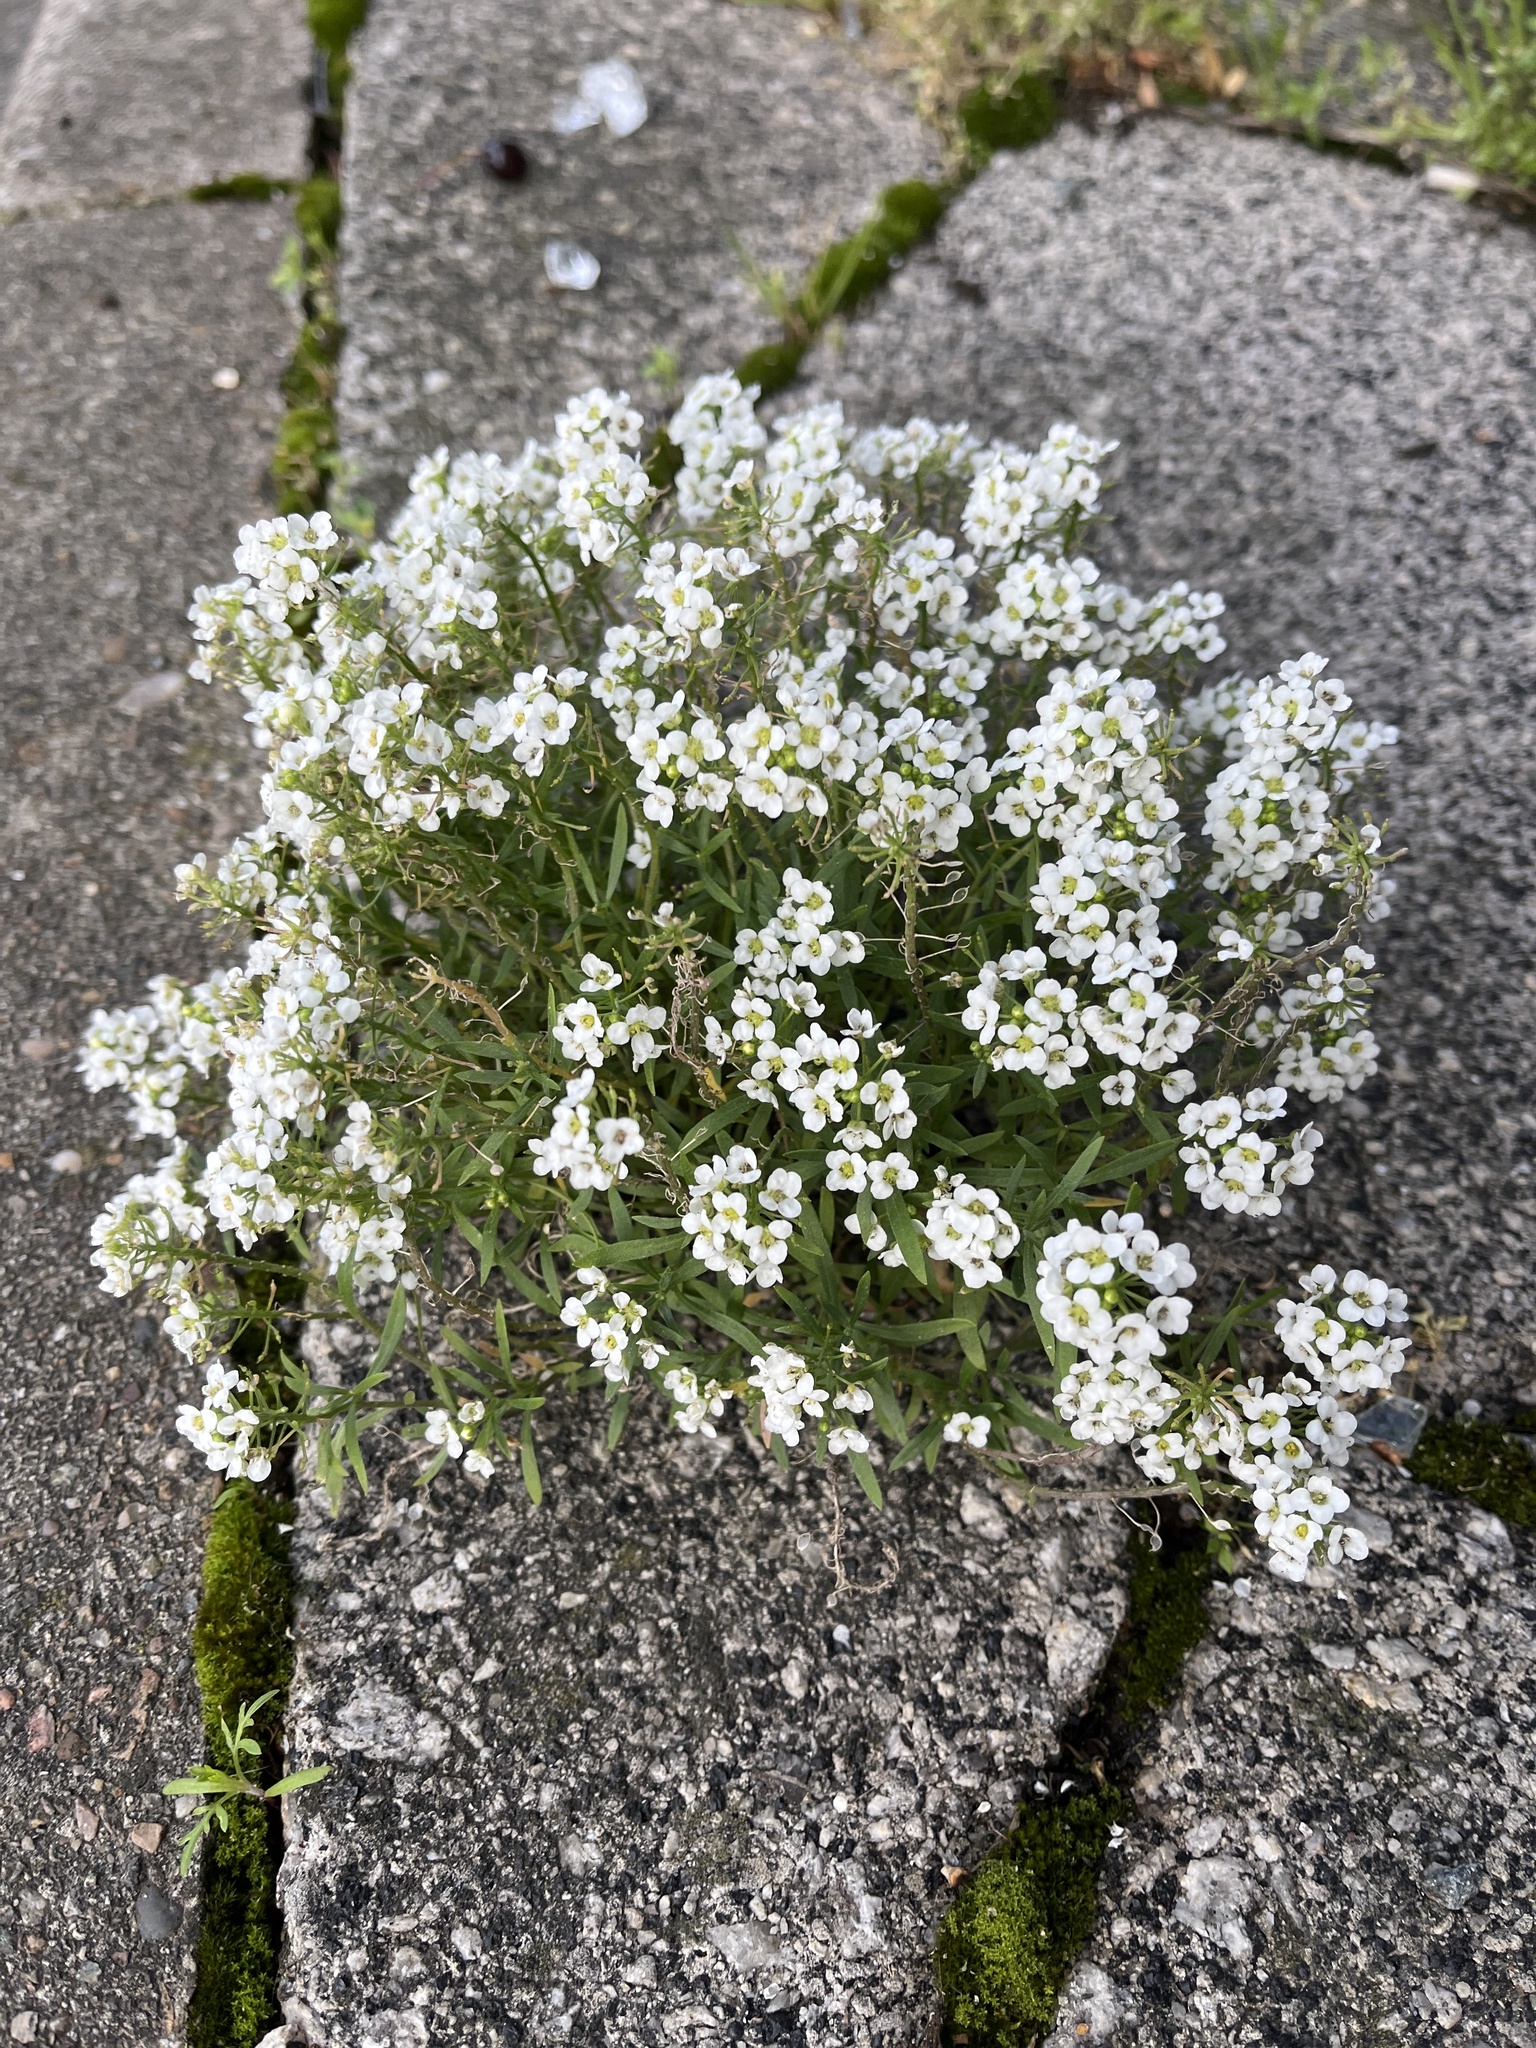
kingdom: Plantae
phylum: Tracheophyta
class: Magnoliopsida
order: Brassicales
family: Brassicaceae
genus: Lobularia
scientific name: Lobularia maritima
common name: Sweet alison
